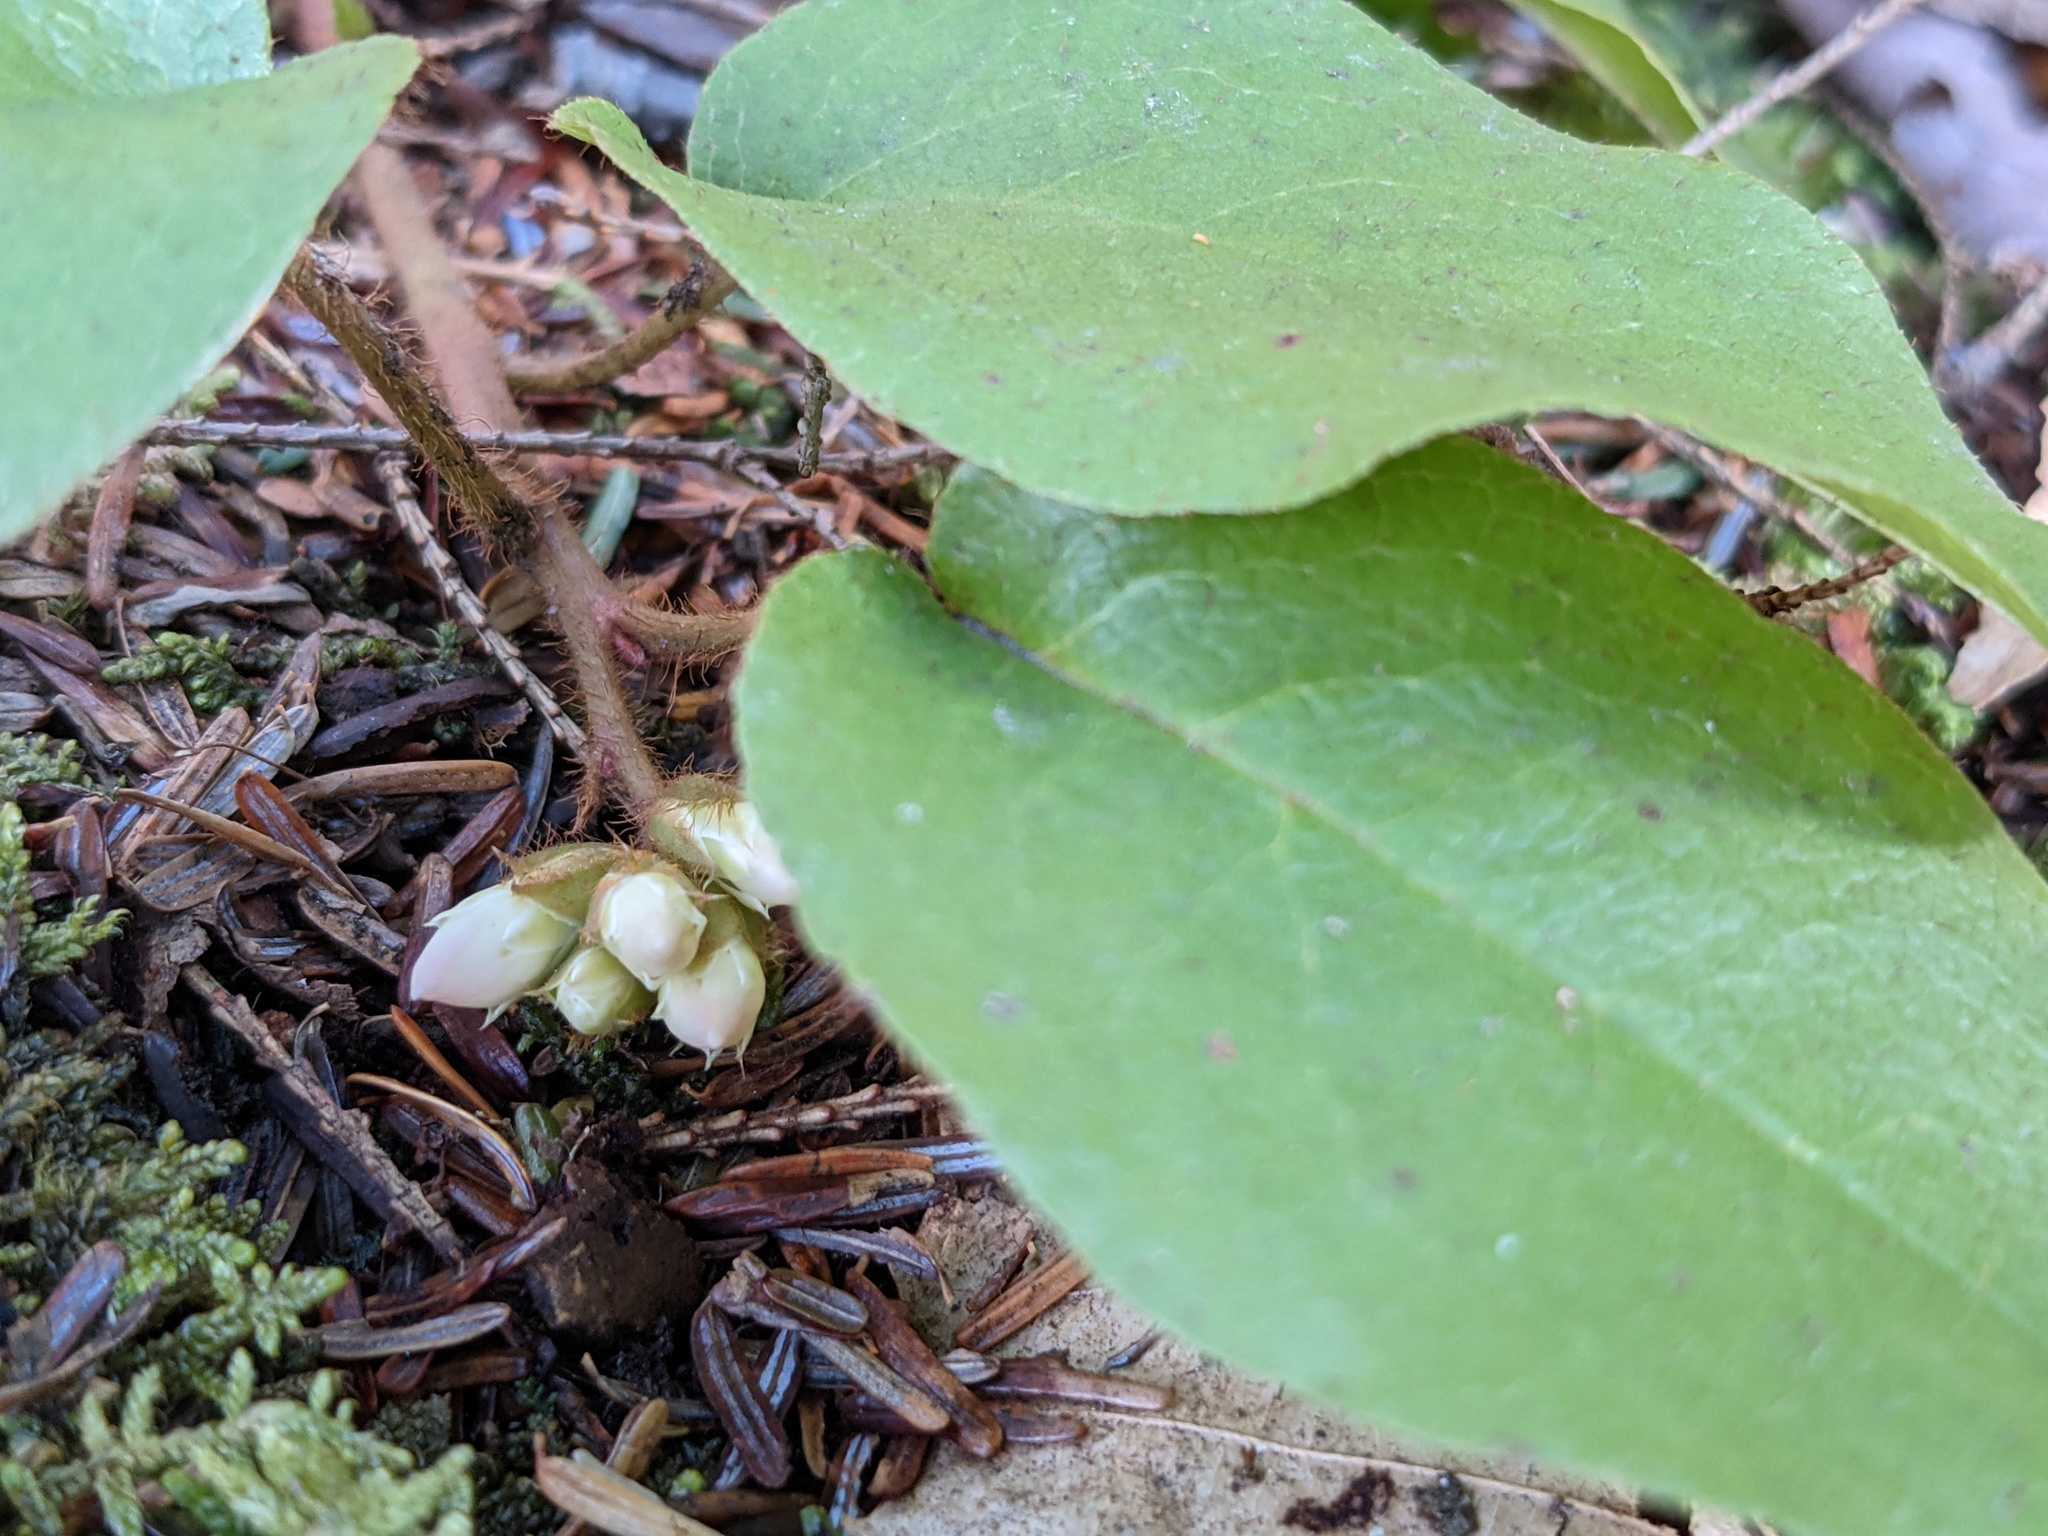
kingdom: Plantae
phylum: Tracheophyta
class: Magnoliopsida
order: Ericales
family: Ericaceae
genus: Epigaea
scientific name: Epigaea repens
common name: Gravelroot
